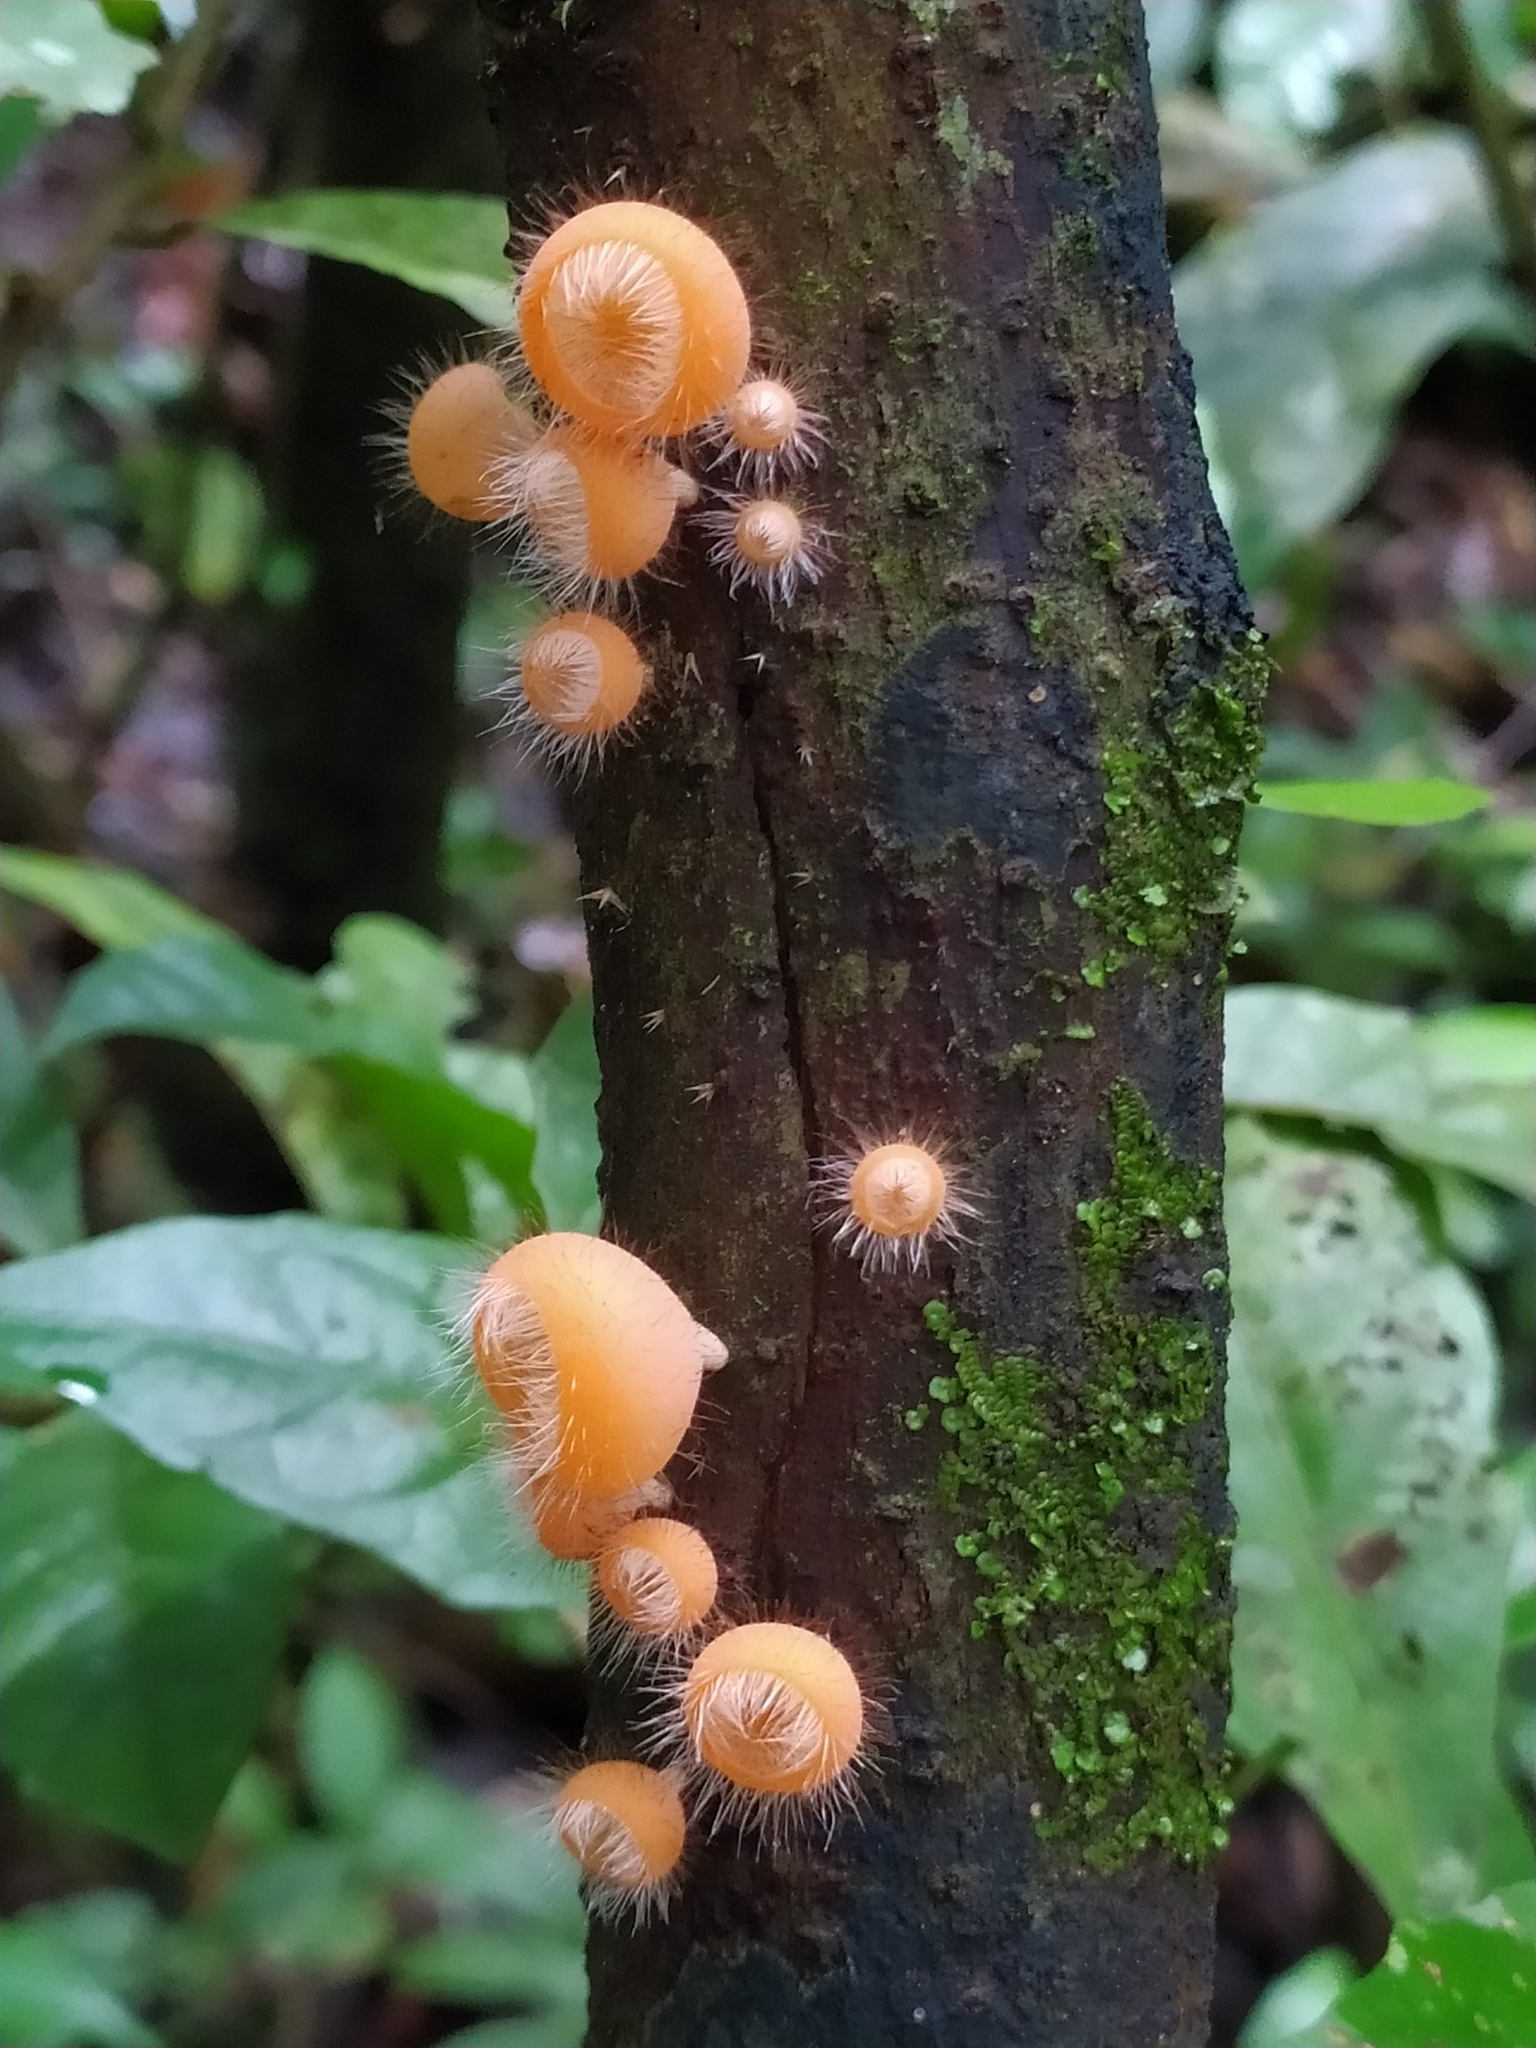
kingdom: Fungi
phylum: Ascomycota
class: Pezizomycetes
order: Pezizales
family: Sarcoscyphaceae
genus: Cookeina
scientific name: Cookeina tricholoma
